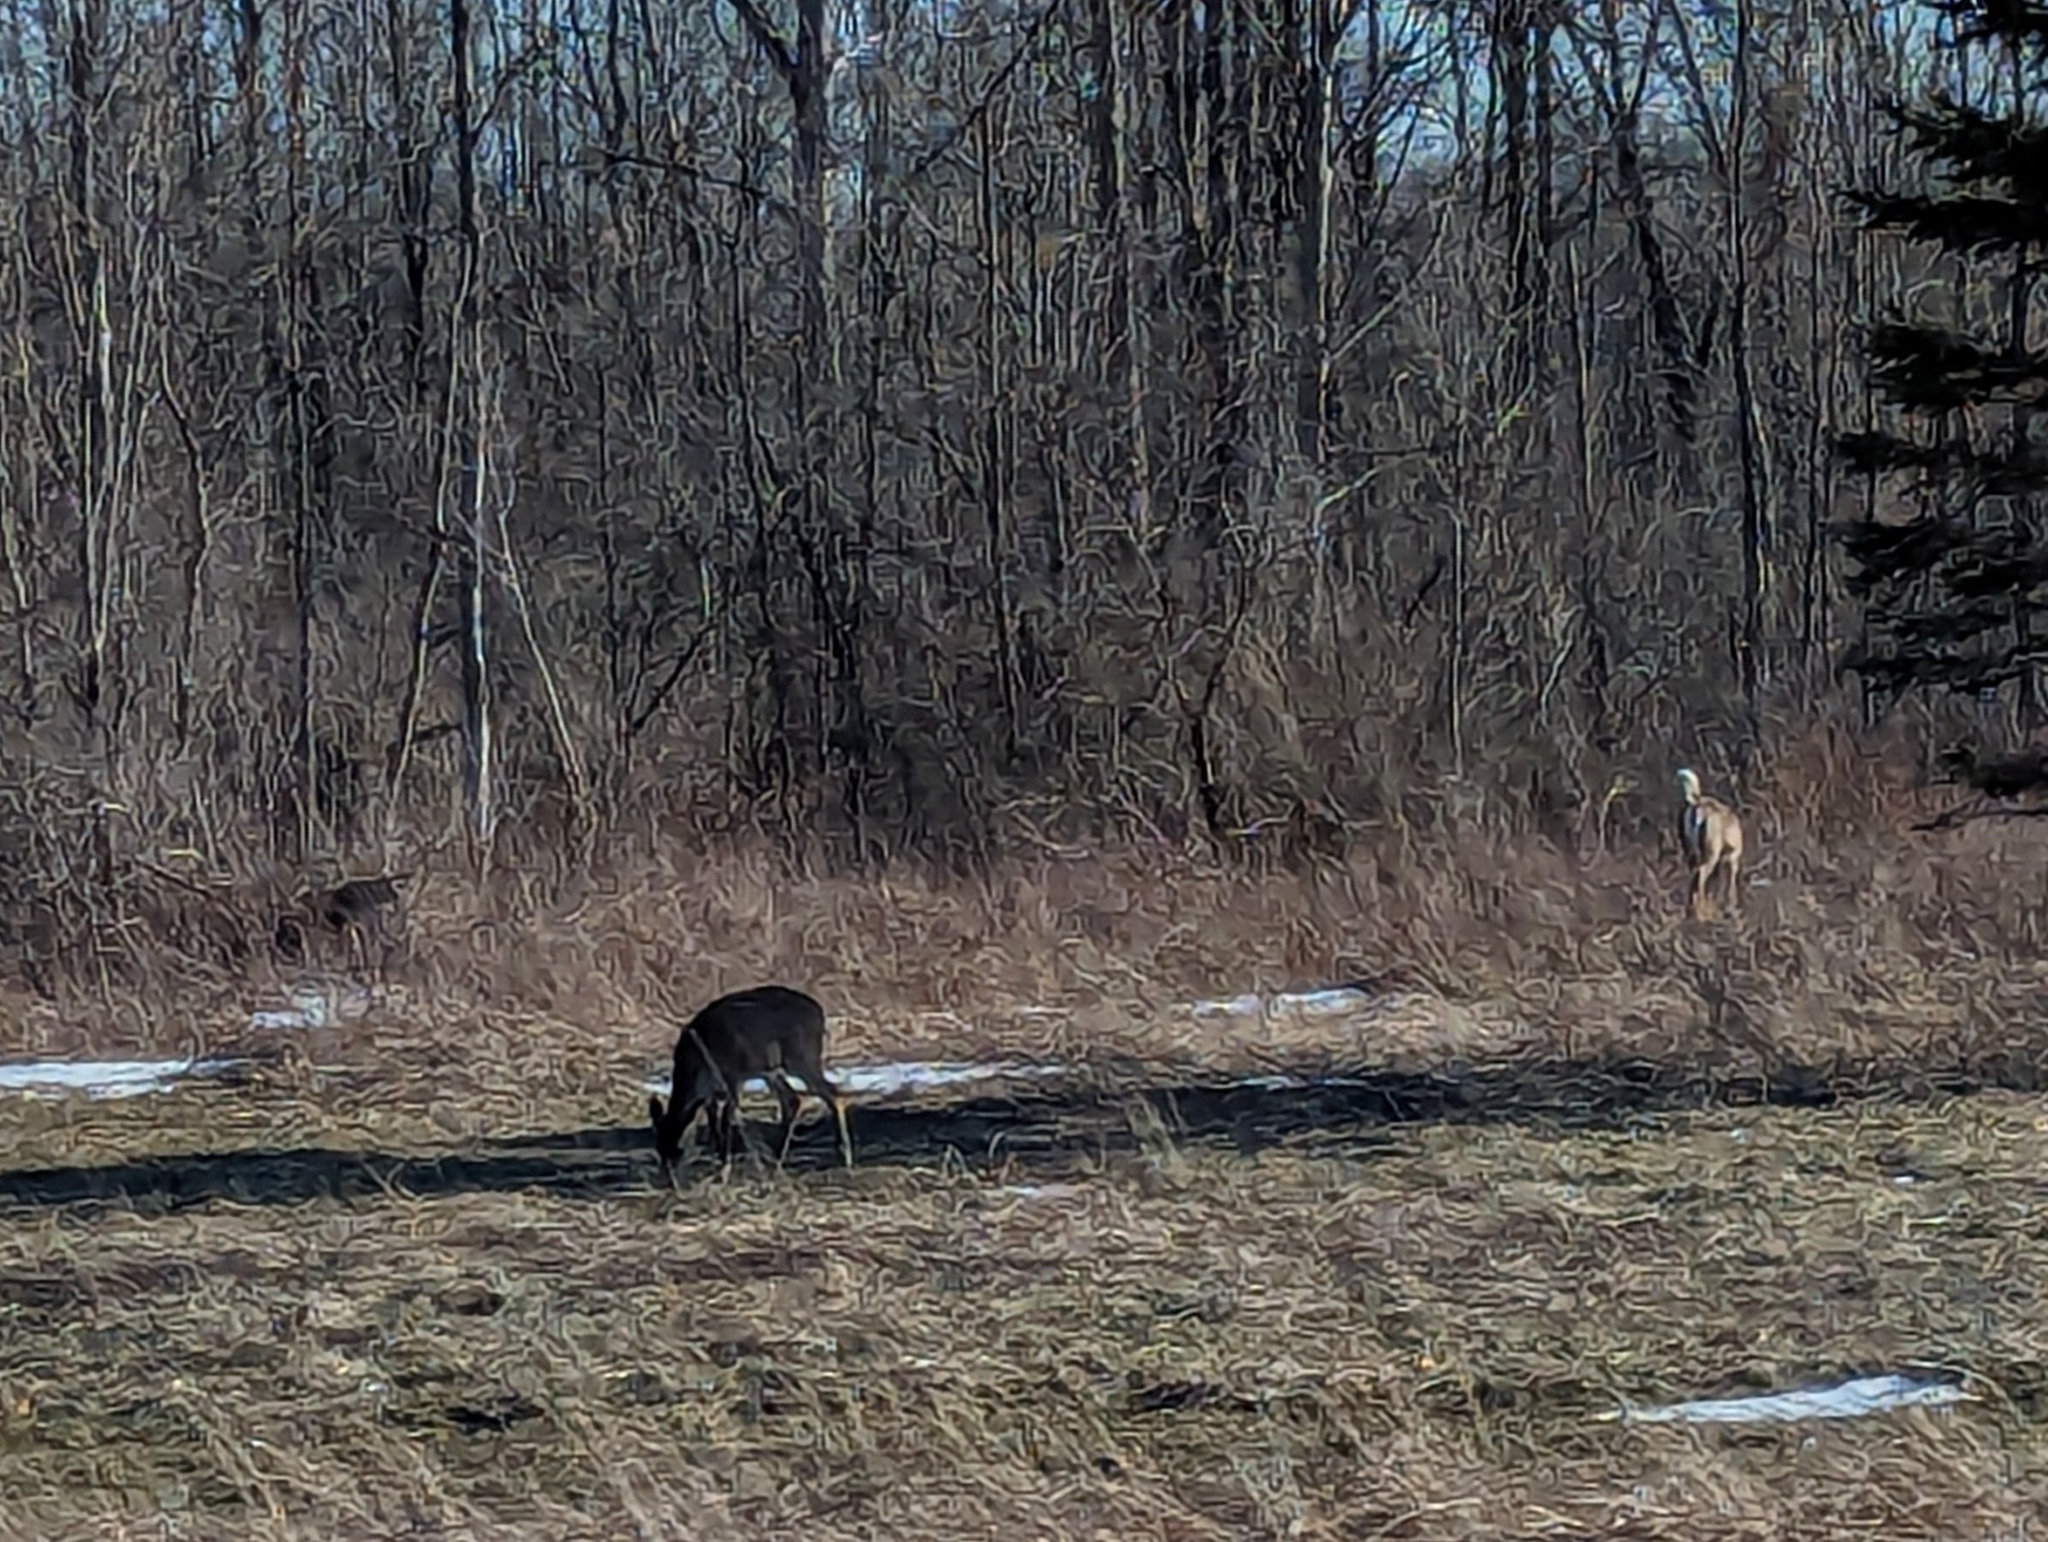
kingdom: Animalia
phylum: Chordata
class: Mammalia
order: Artiodactyla
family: Cervidae
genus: Odocoileus
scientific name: Odocoileus virginianus
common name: White-tailed deer
